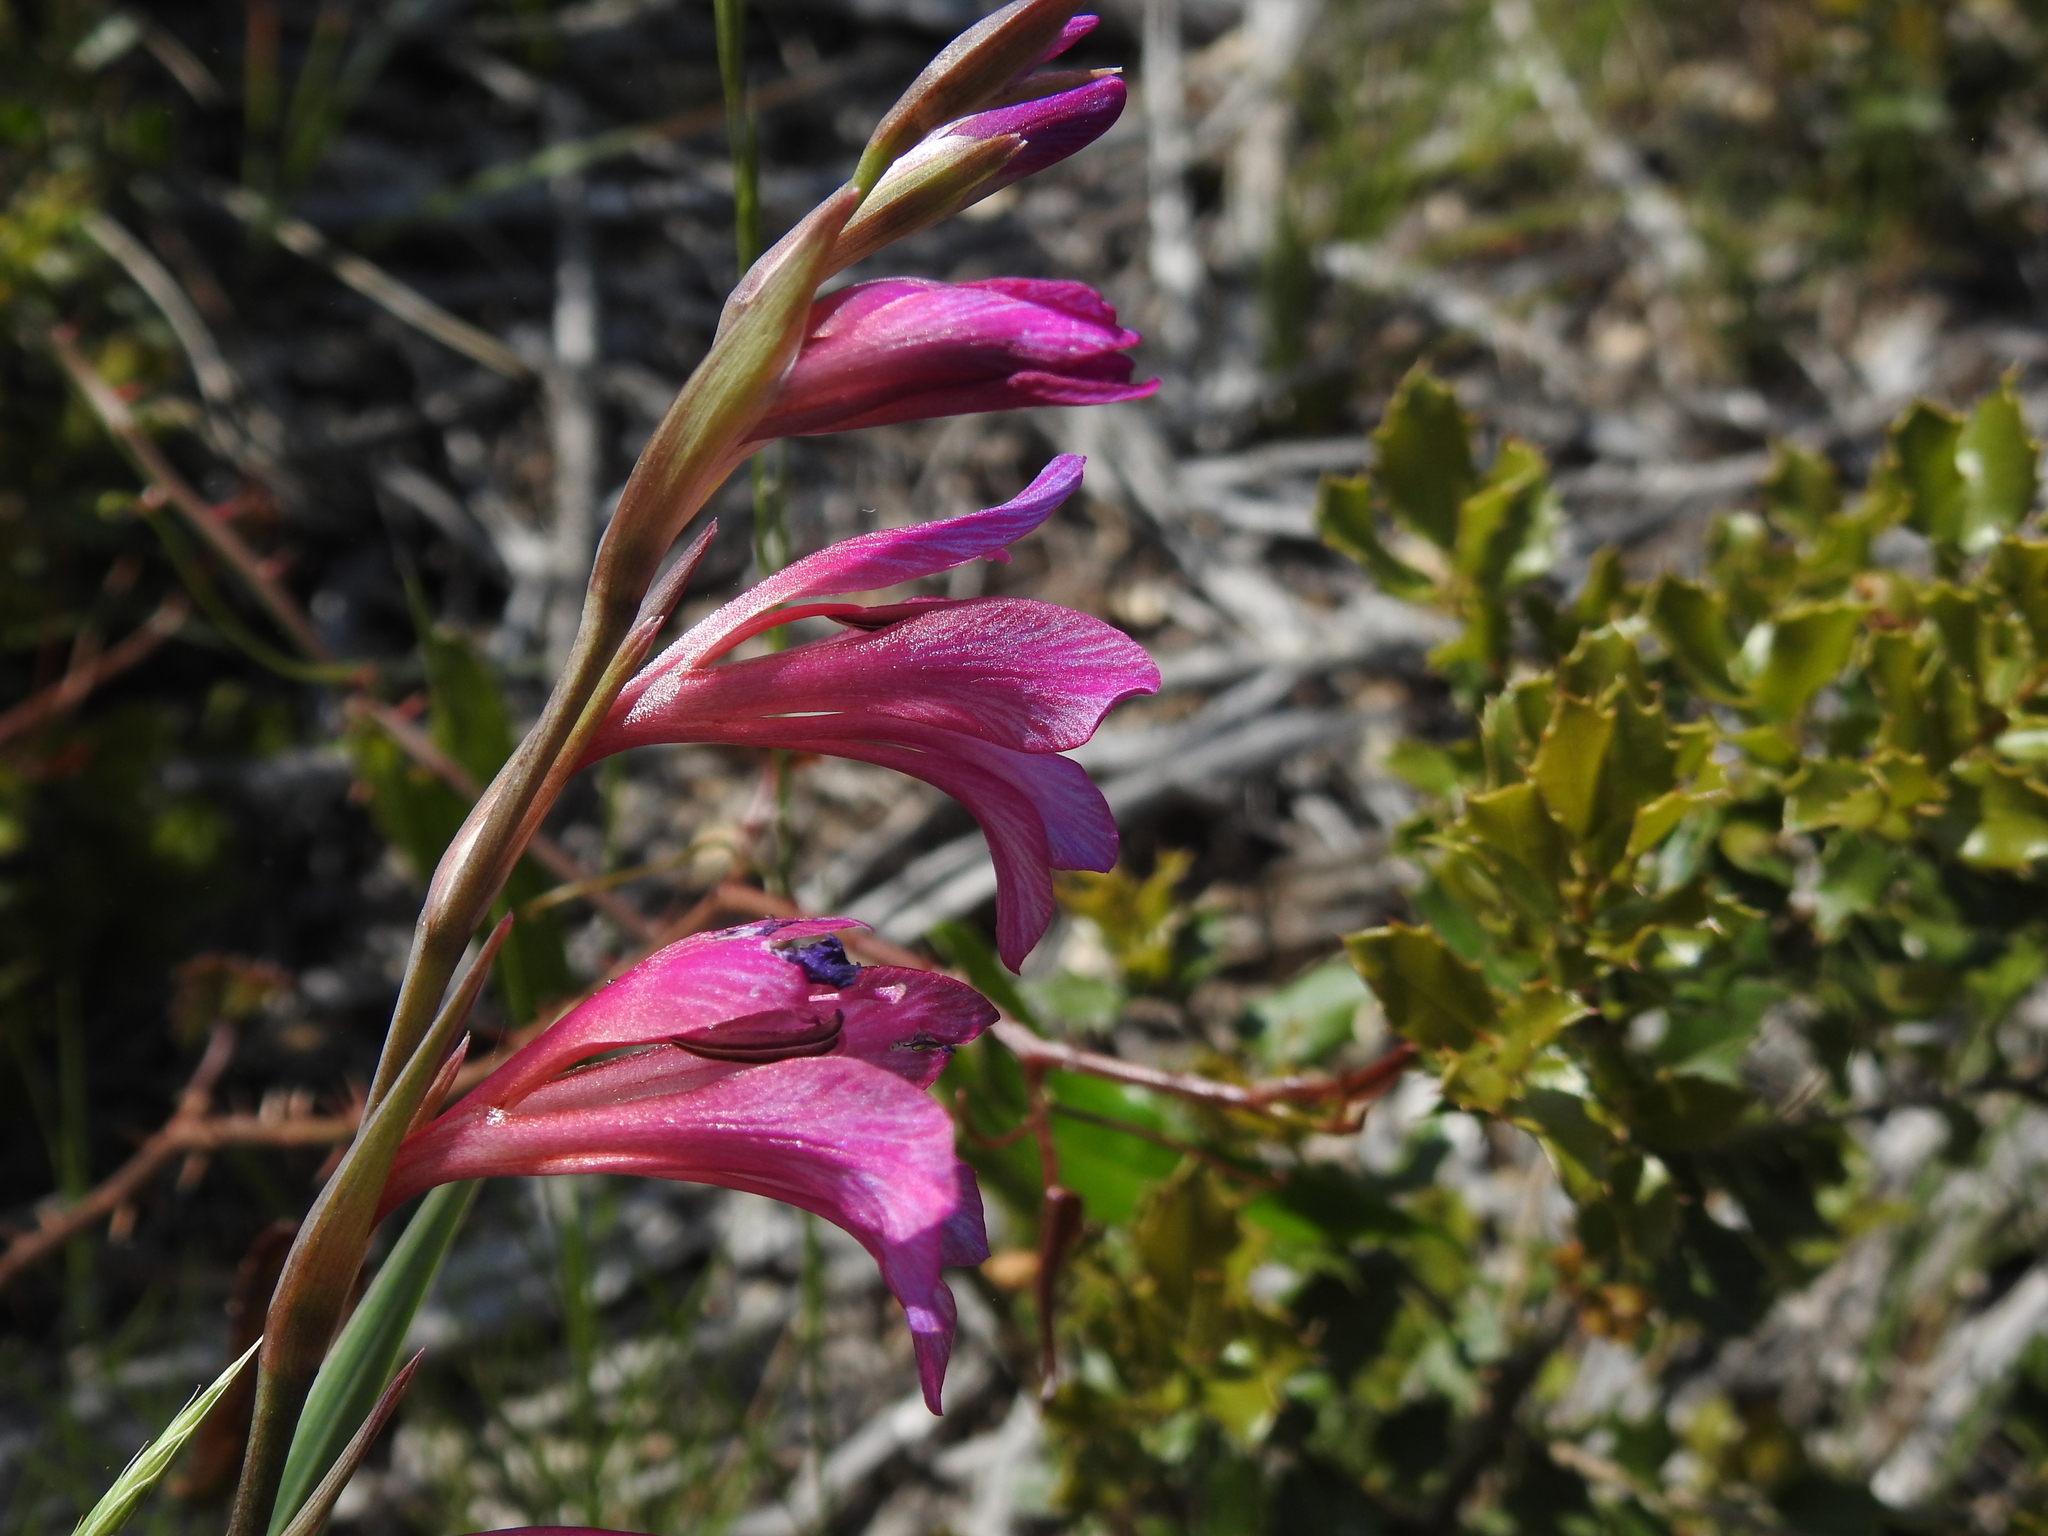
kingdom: Plantae
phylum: Tracheophyta
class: Liliopsida
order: Asparagales
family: Iridaceae
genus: Gladiolus
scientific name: Gladiolus dubius
